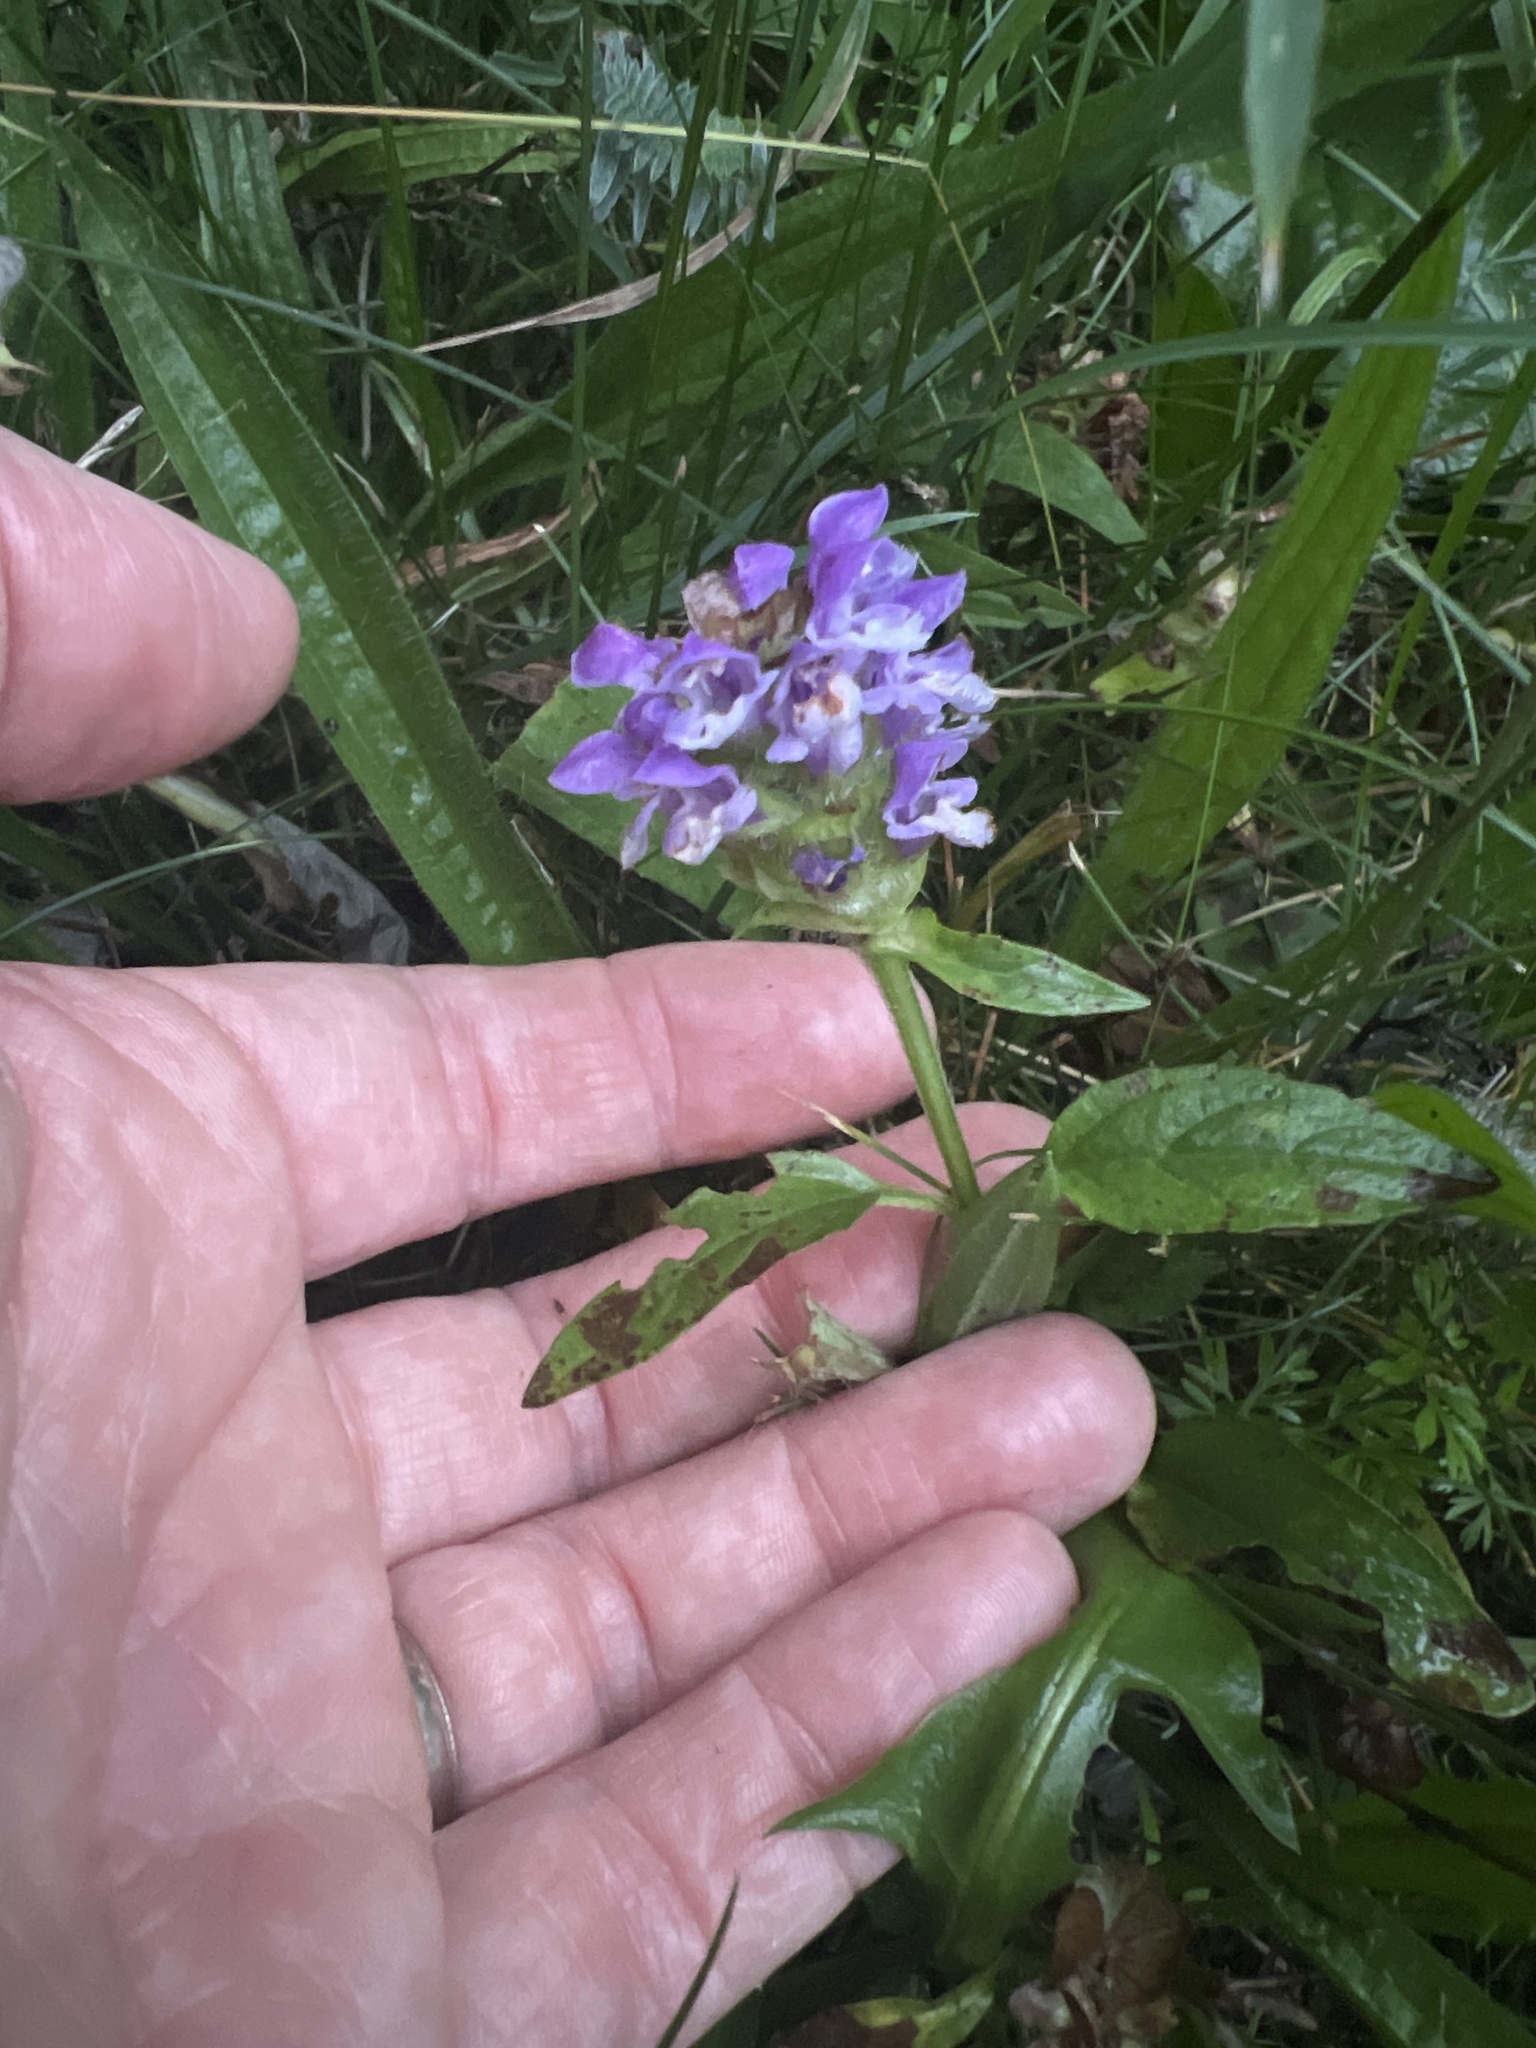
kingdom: Plantae
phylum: Tracheophyta
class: Magnoliopsida
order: Lamiales
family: Lamiaceae
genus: Prunella
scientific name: Prunella vulgaris
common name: Heal-all
